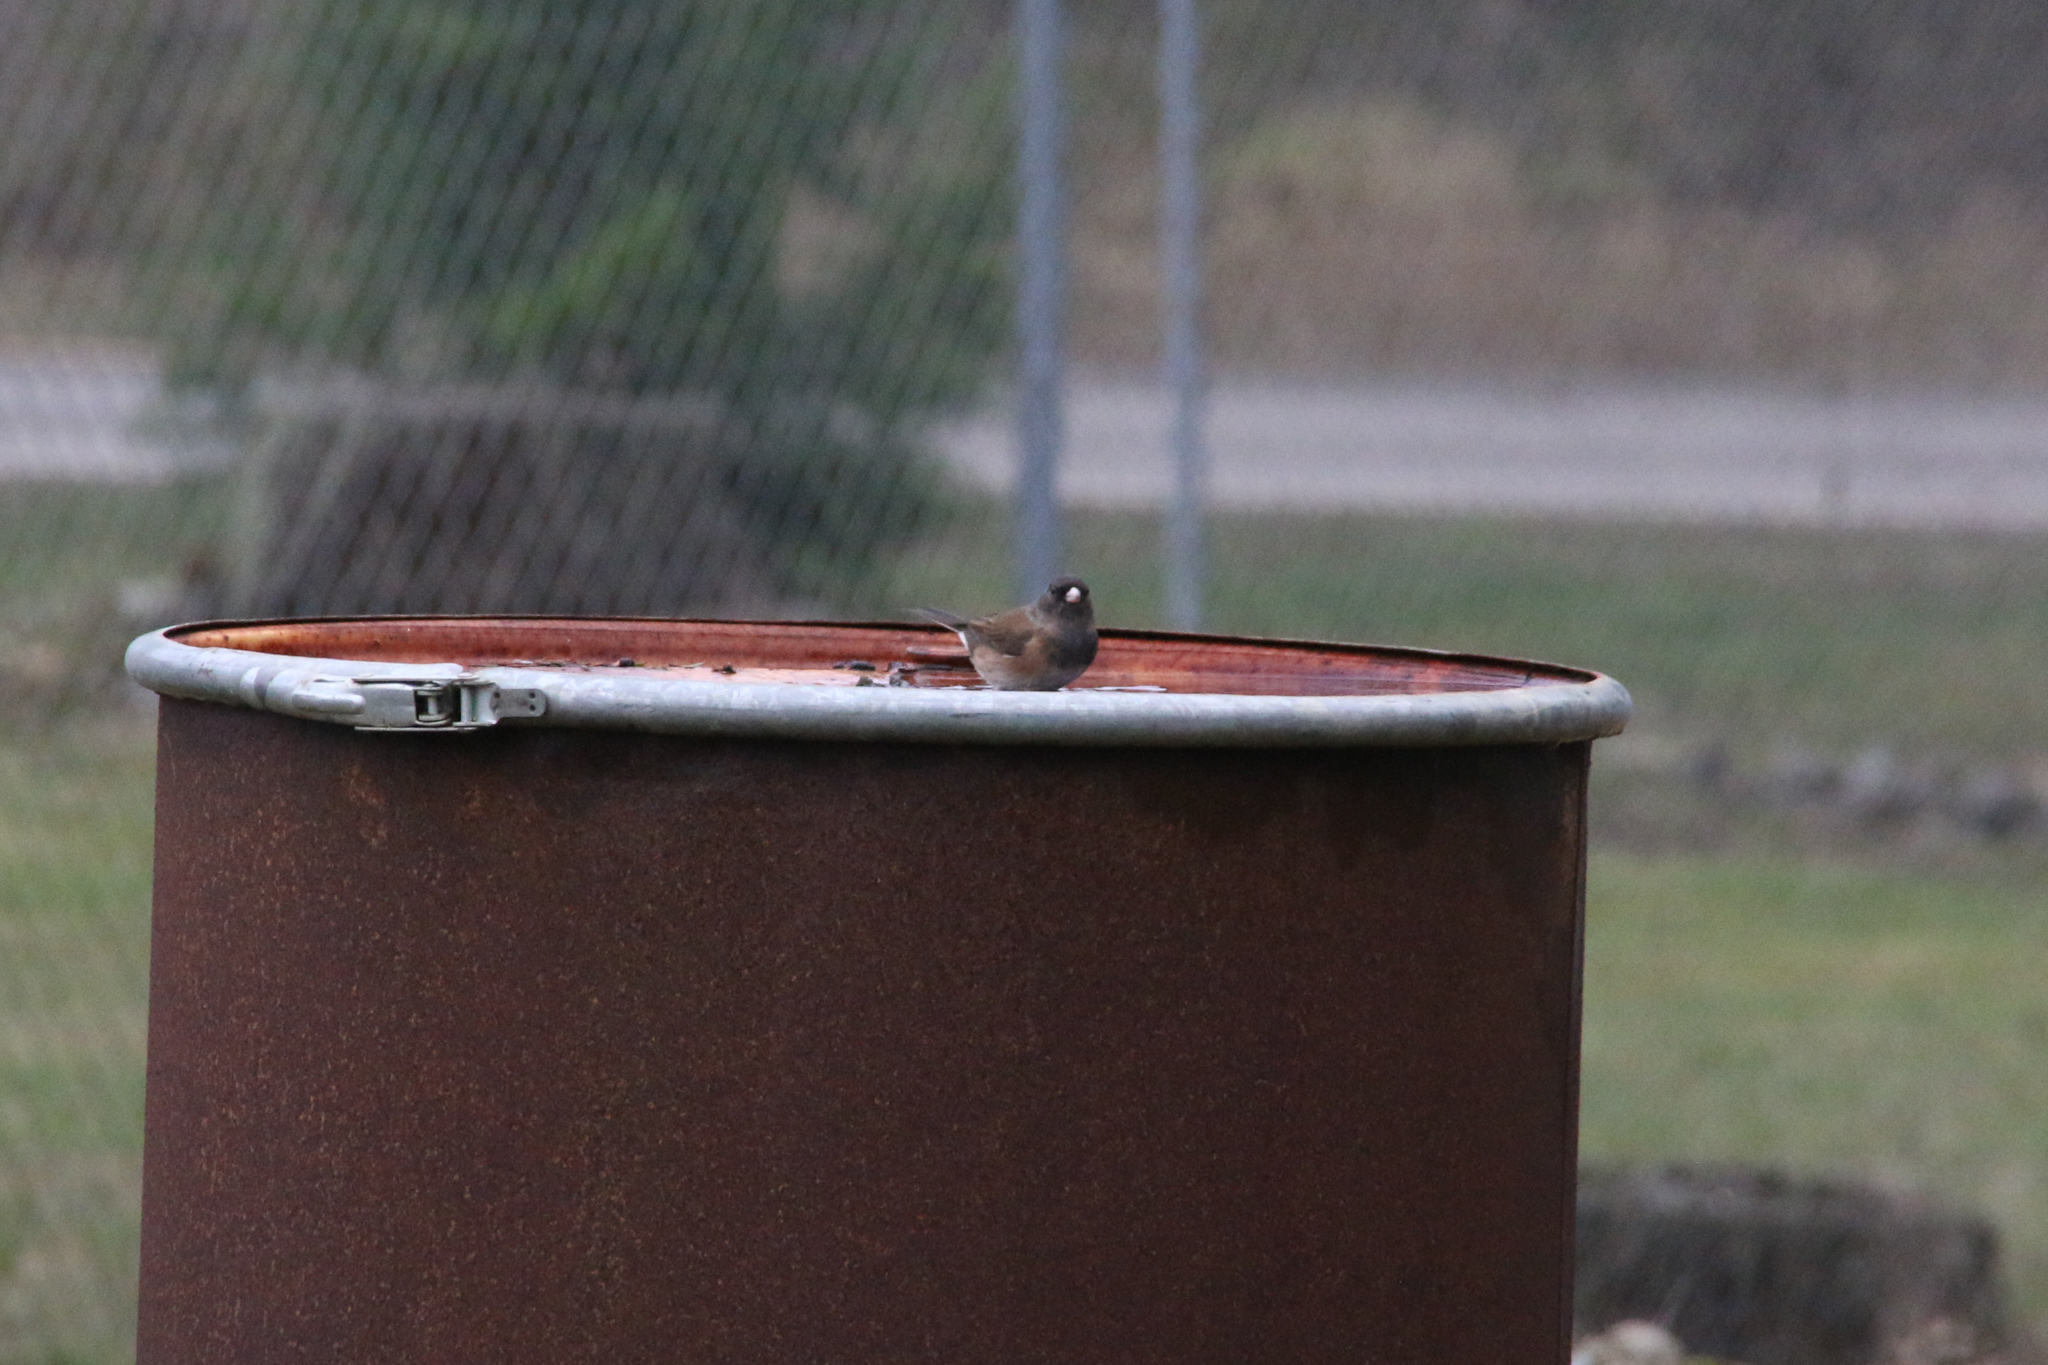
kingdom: Animalia
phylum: Chordata
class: Aves
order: Passeriformes
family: Passerellidae
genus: Junco
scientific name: Junco hyemalis
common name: Dark-eyed junco
